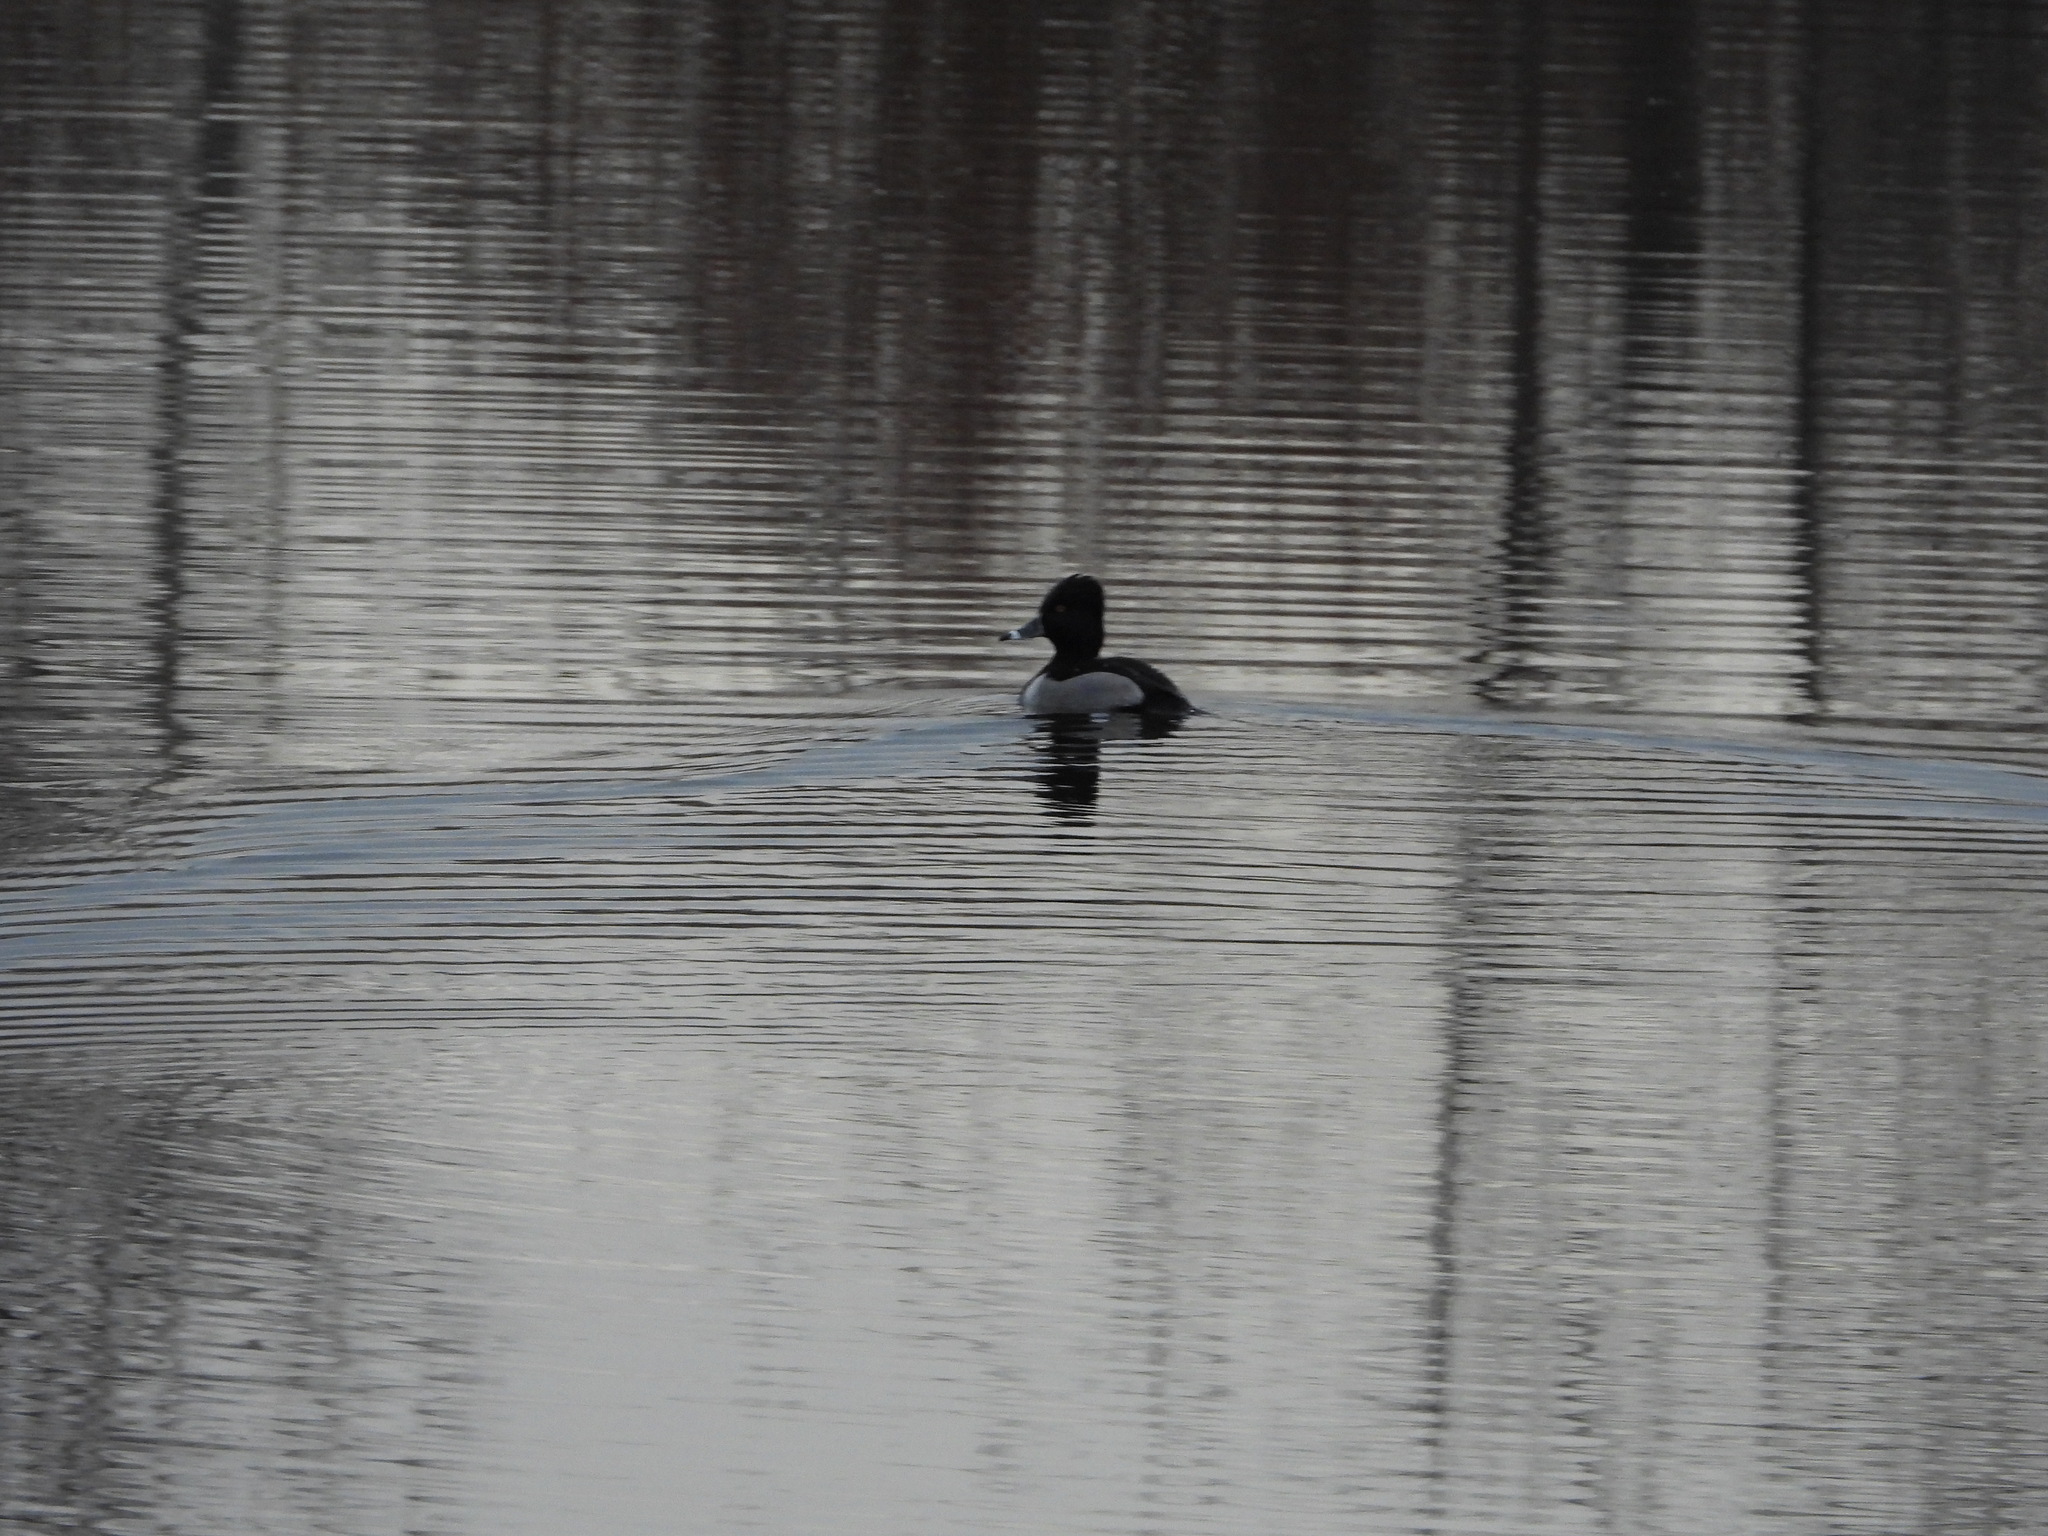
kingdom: Animalia
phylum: Chordata
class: Aves
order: Anseriformes
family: Anatidae
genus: Aythya
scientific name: Aythya collaris
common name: Ring-necked duck
